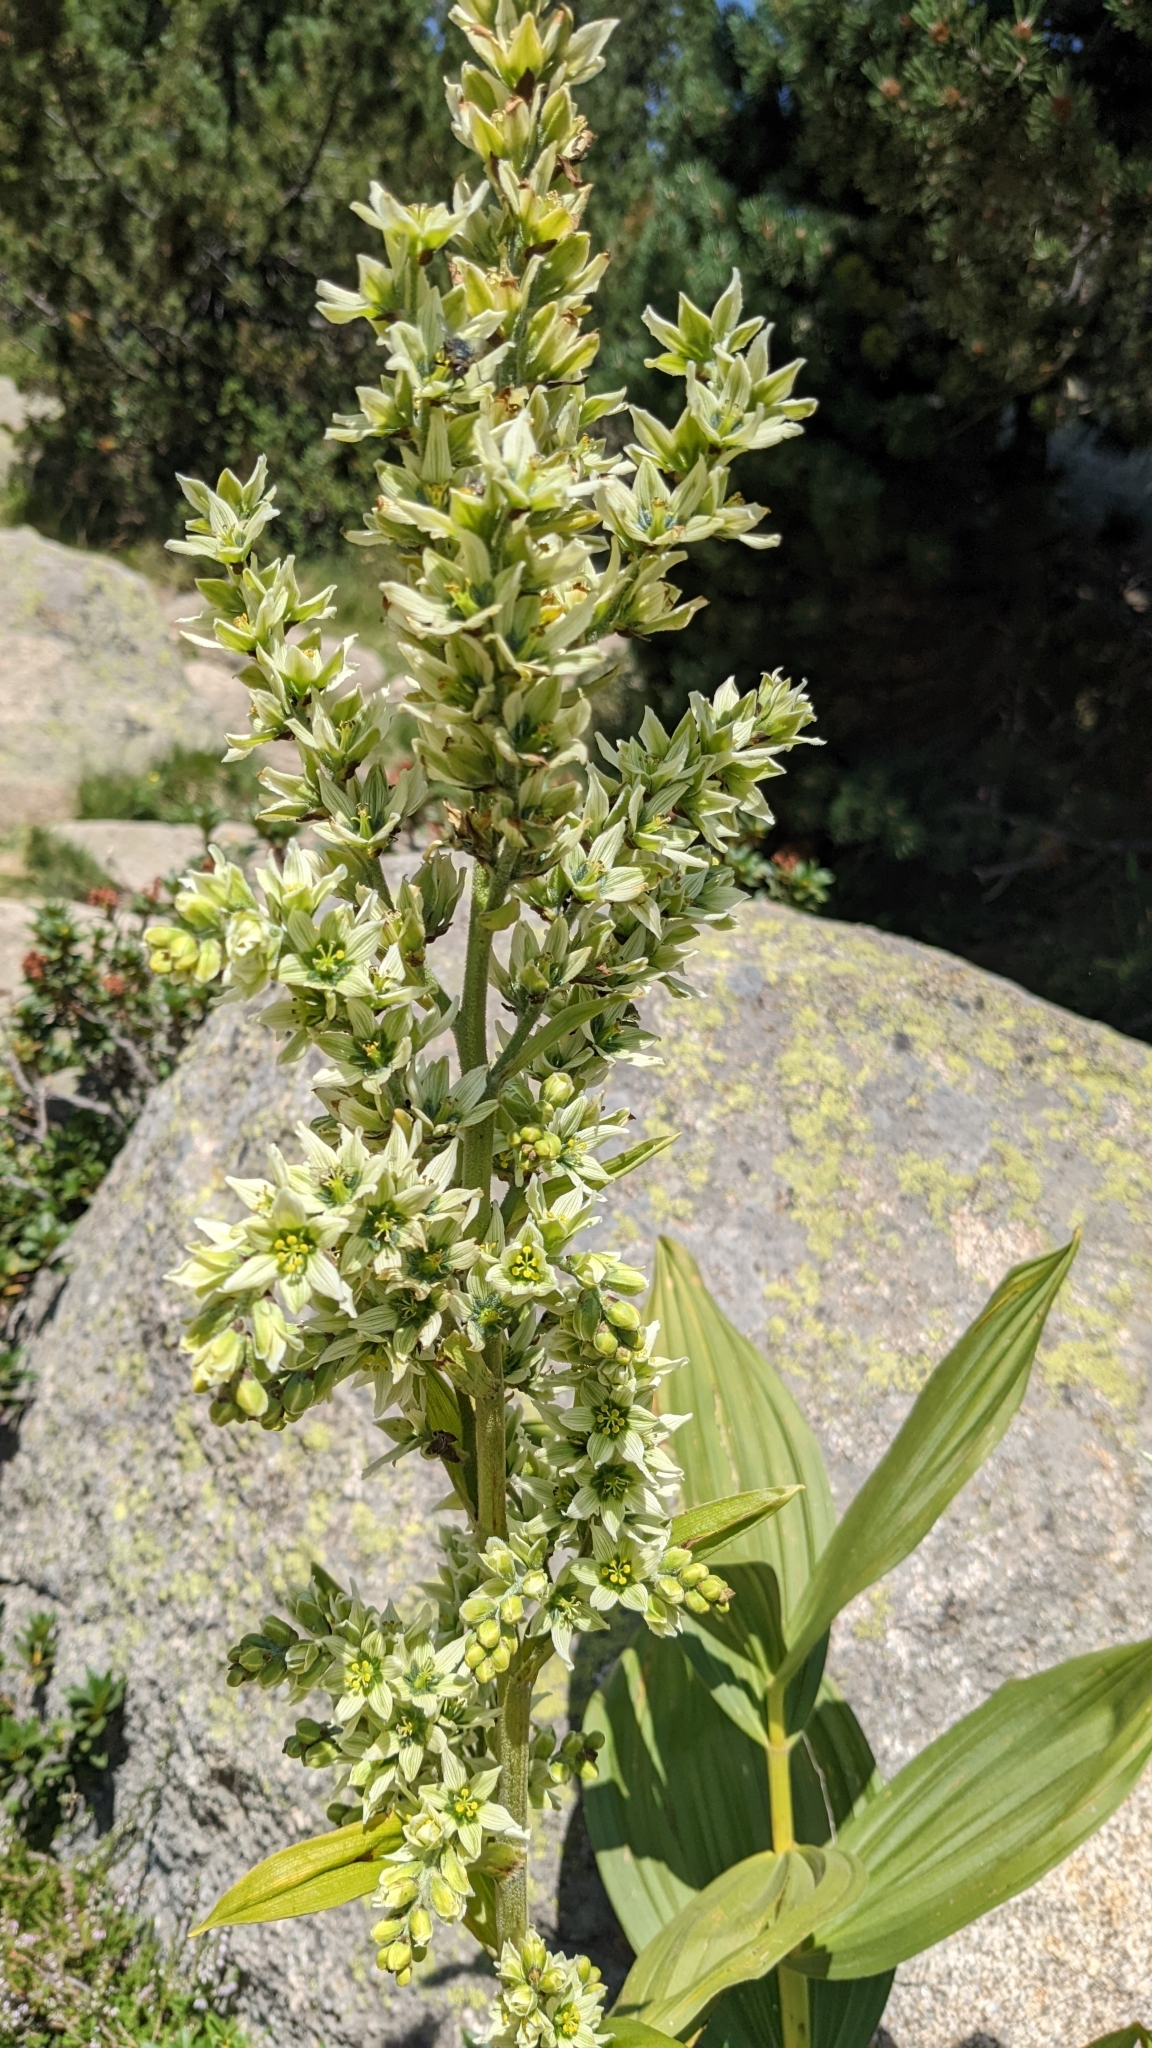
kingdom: Plantae
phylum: Tracheophyta
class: Liliopsida
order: Liliales
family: Melanthiaceae
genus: Veratrum
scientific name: Veratrum album
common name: White veratrum
